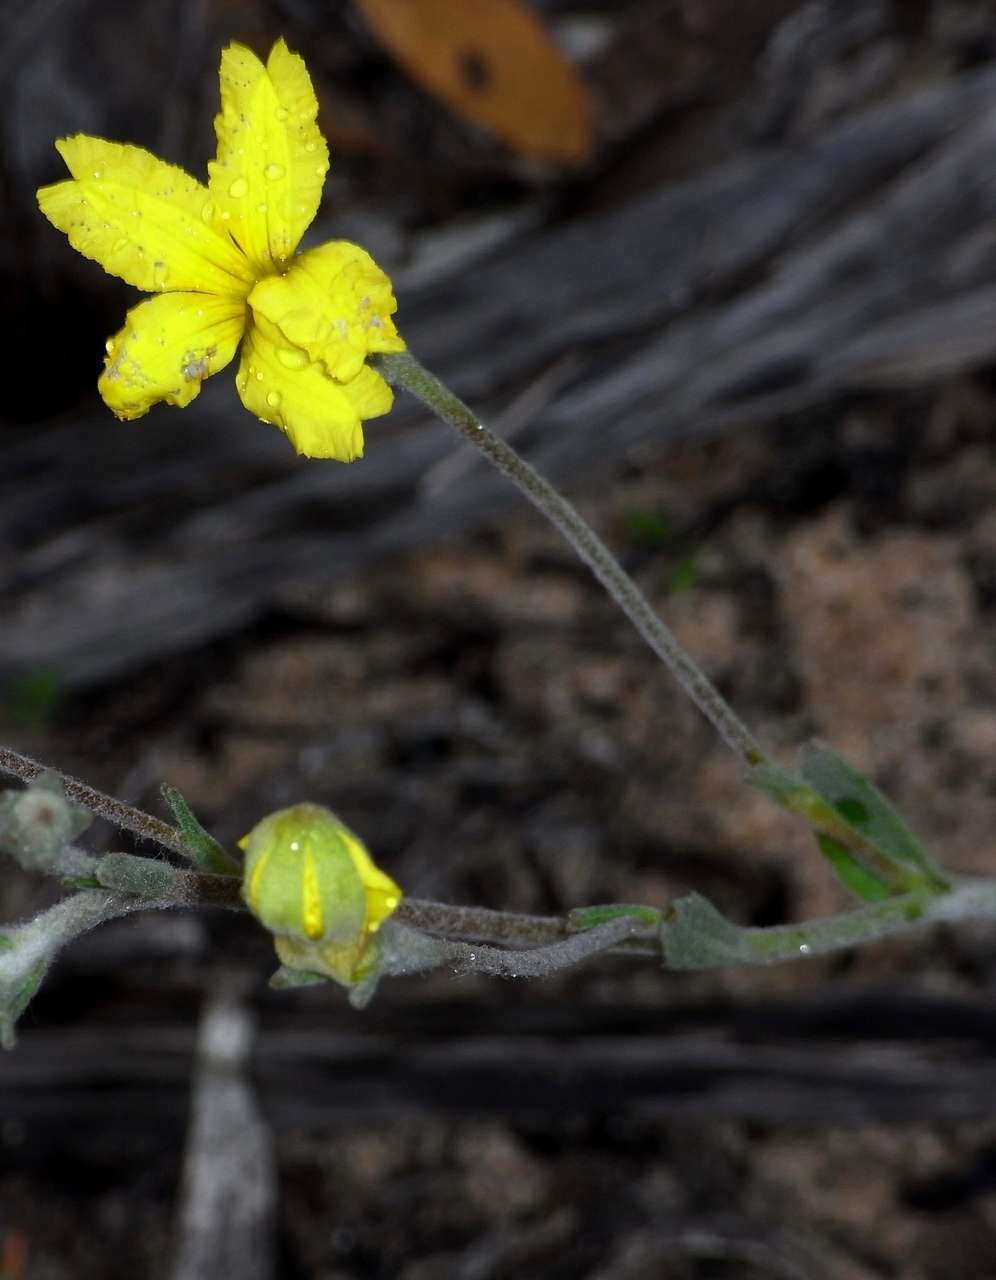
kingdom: Plantae
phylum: Tracheophyta
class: Magnoliopsida
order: Asterales
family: Goodeniaceae
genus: Goodenia
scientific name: Goodenia robusta
